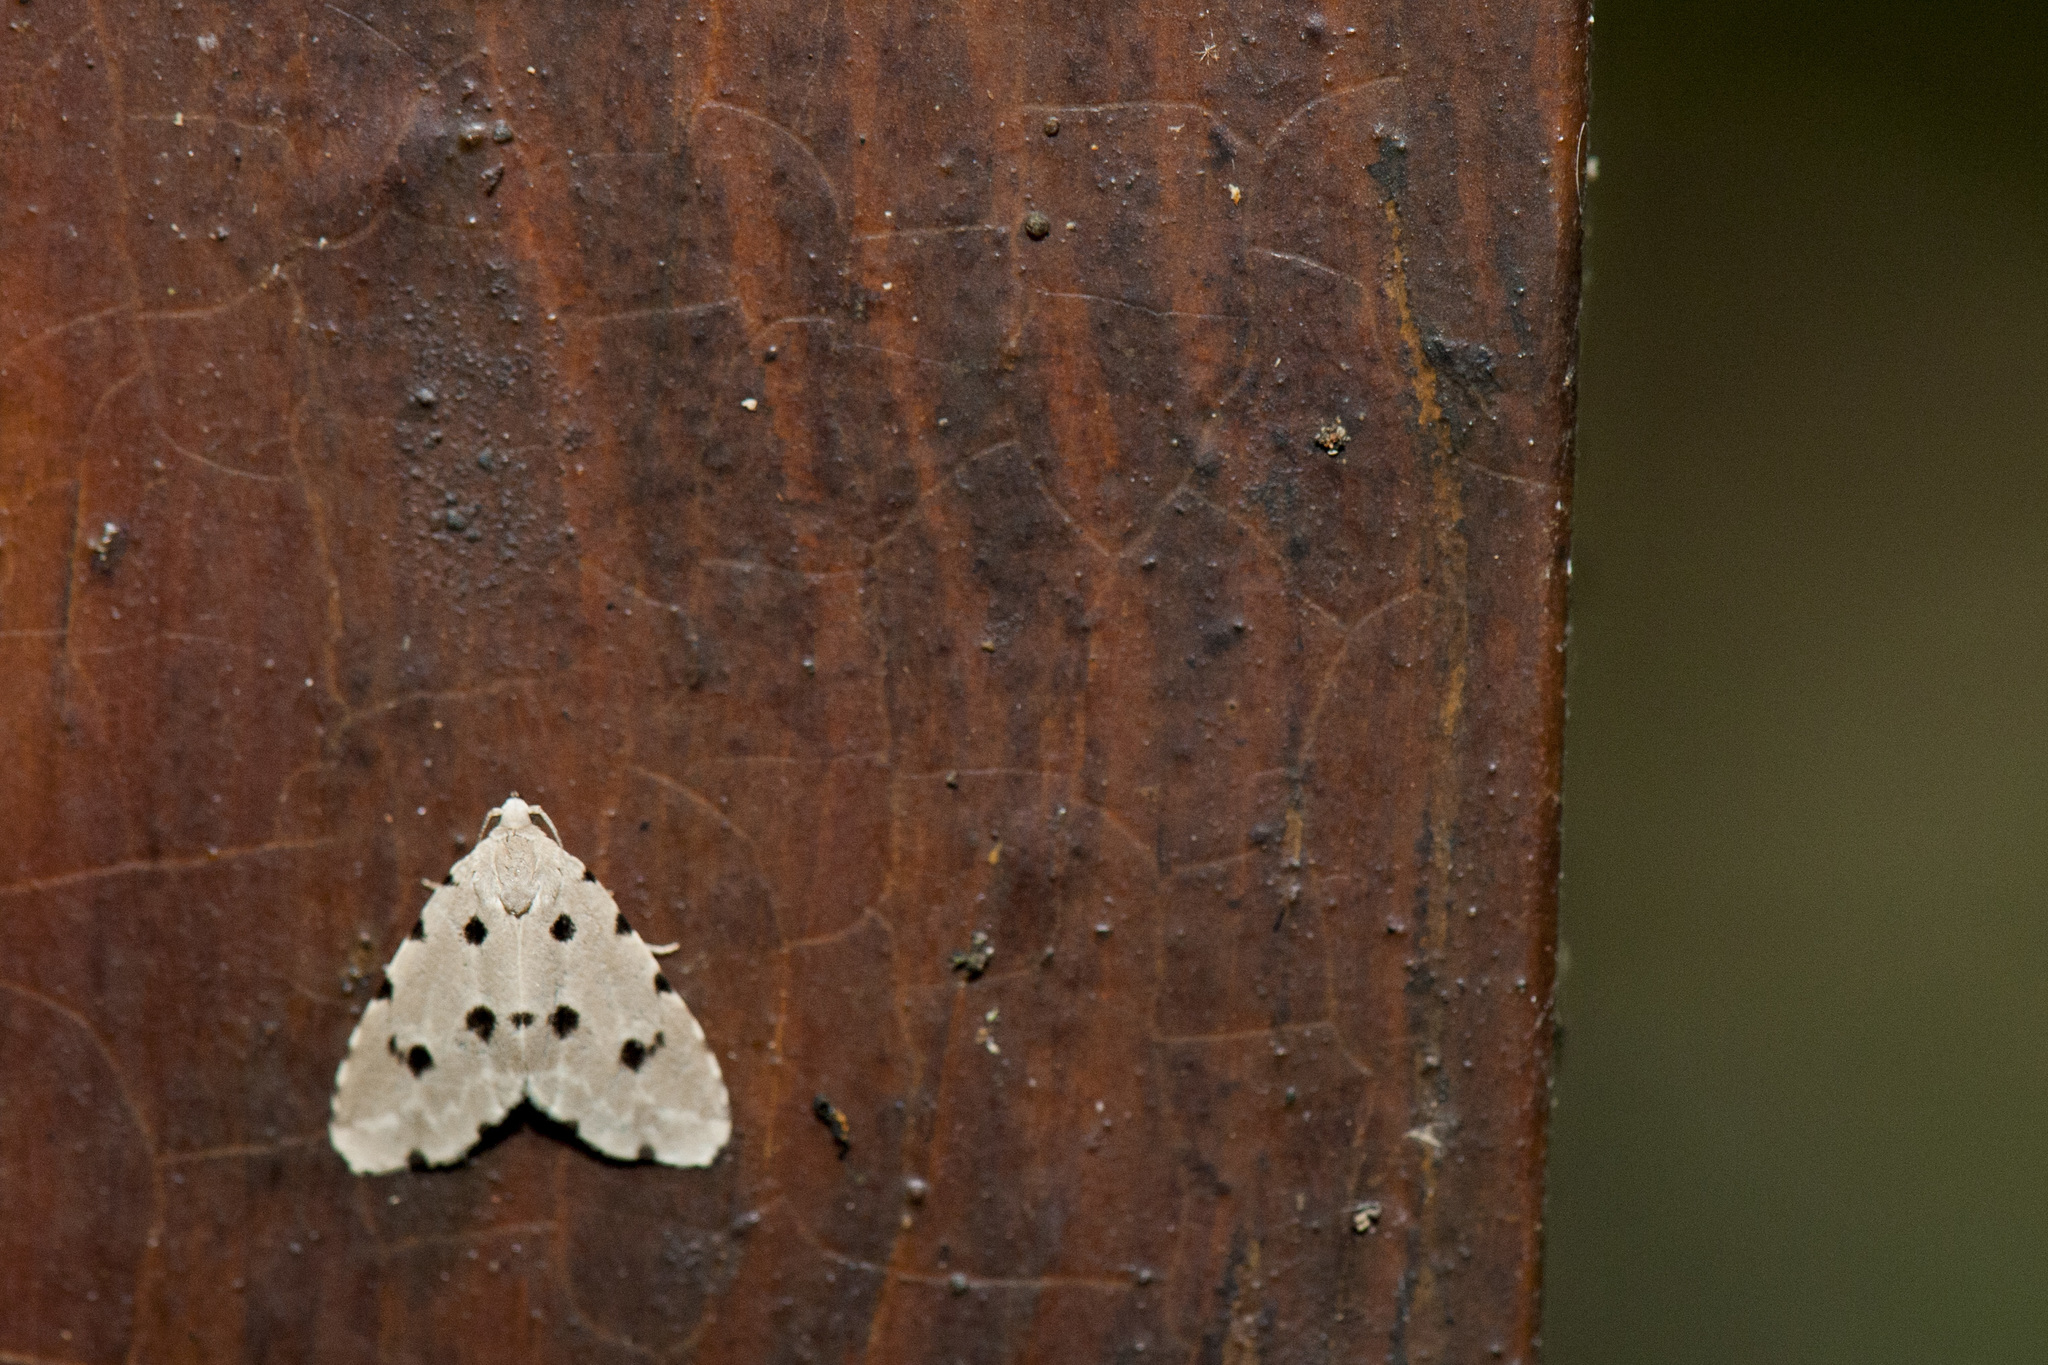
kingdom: Animalia
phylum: Arthropoda
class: Insecta
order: Lepidoptera
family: Noctuidae
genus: Metaemene
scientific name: Metaemene atrigutta
